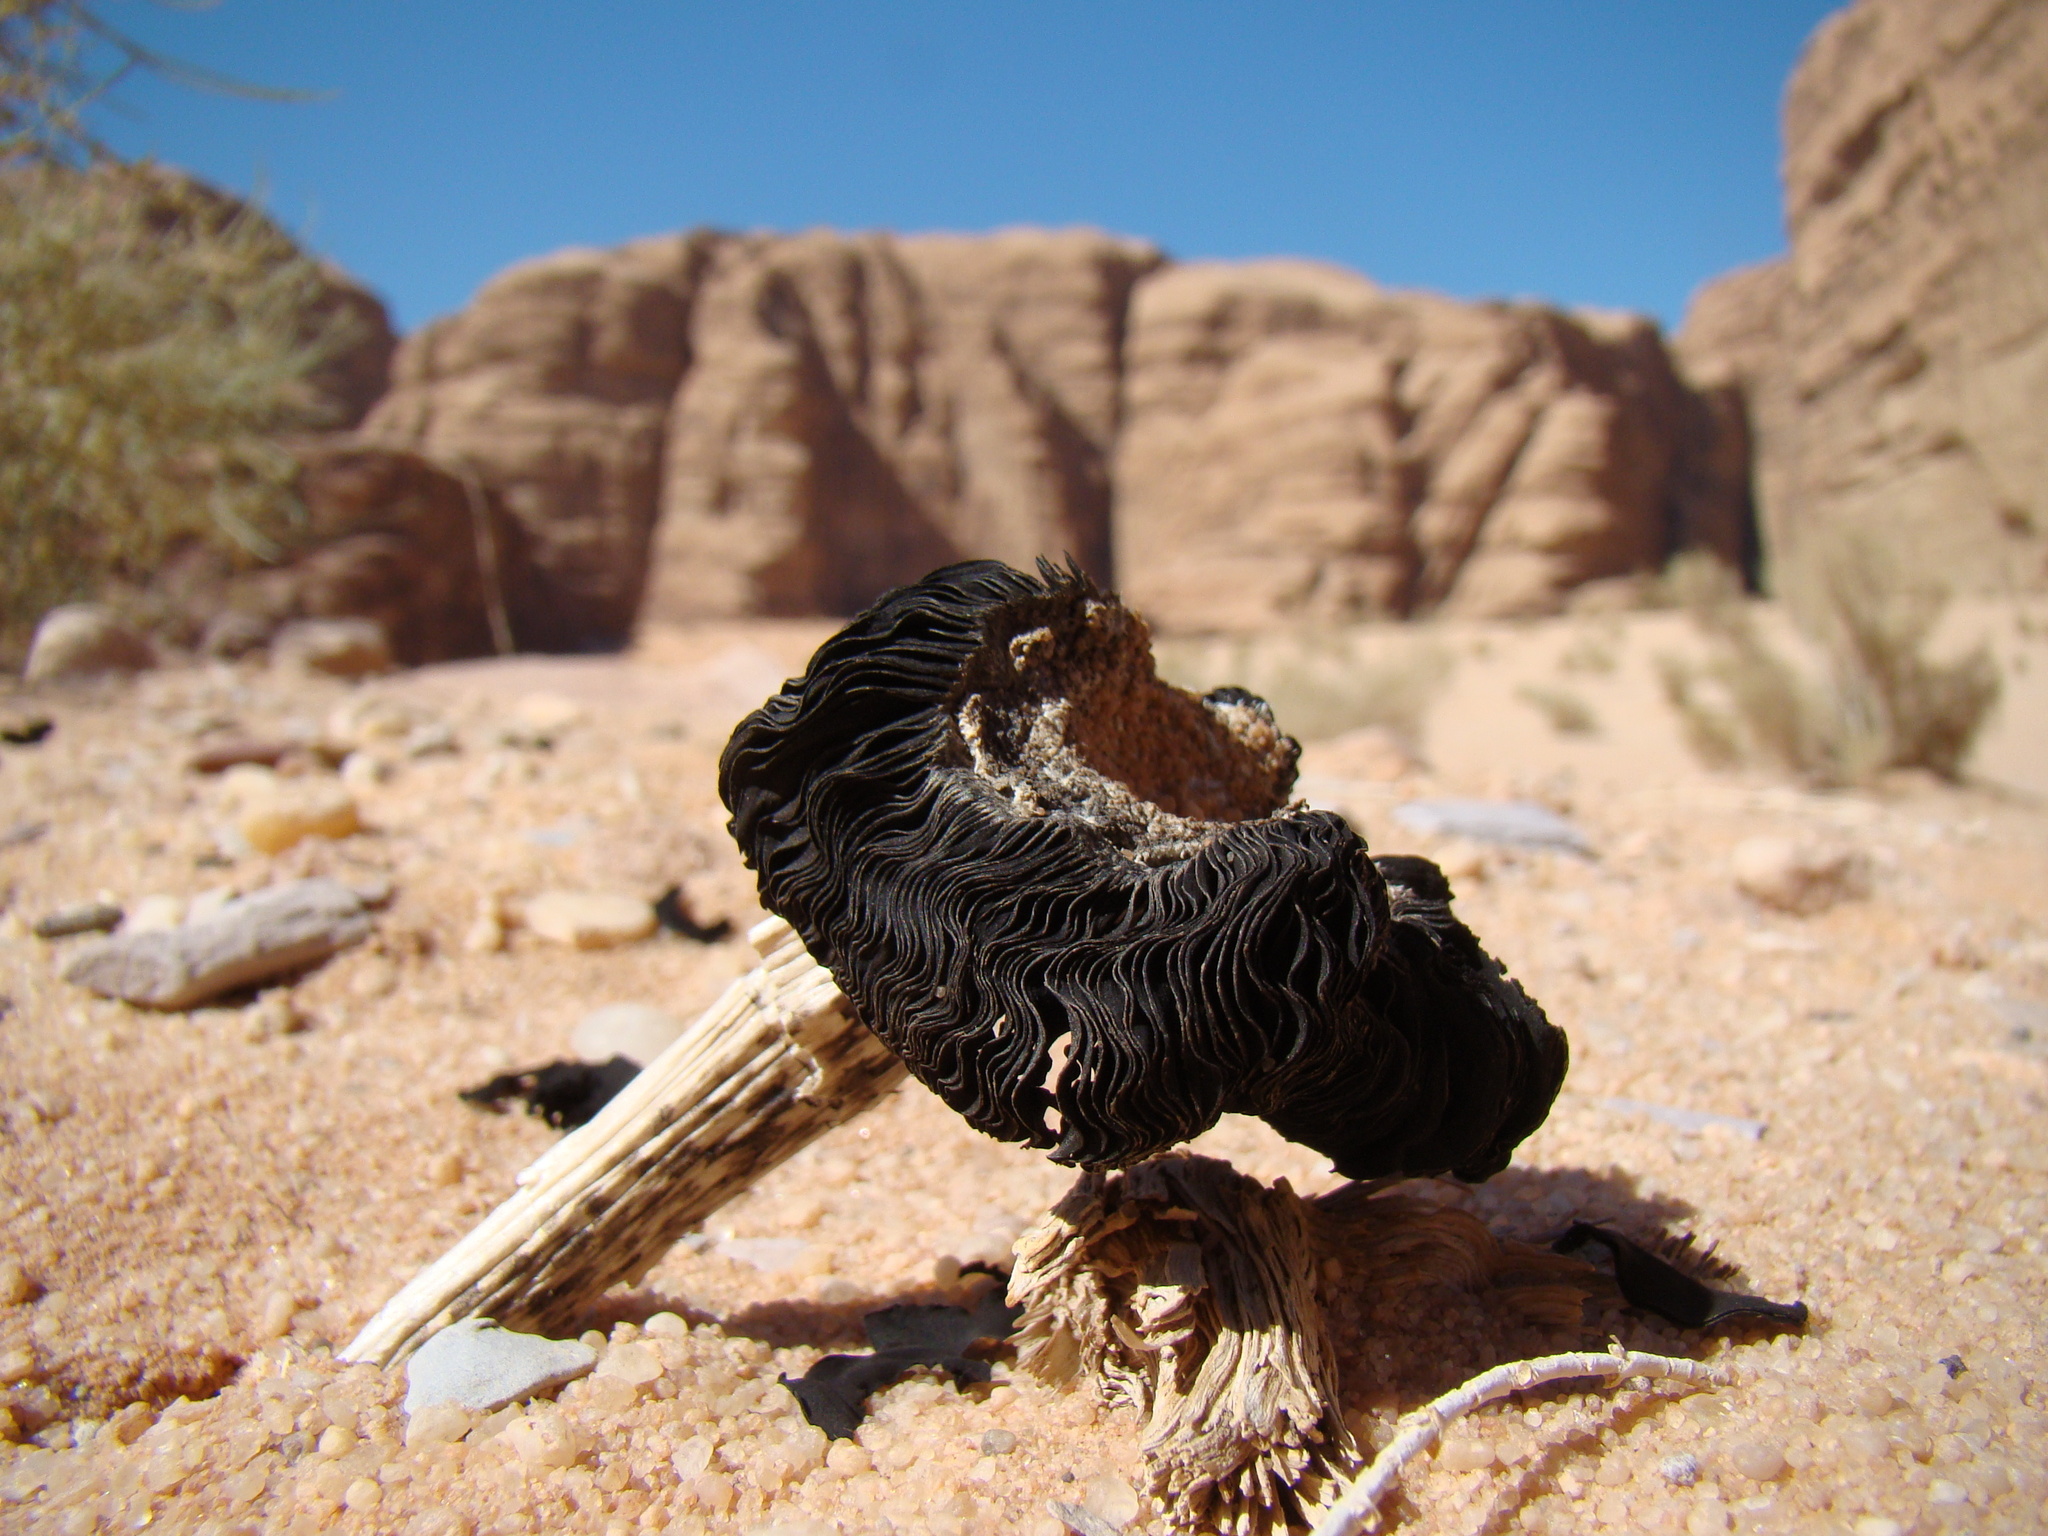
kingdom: Fungi
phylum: Basidiomycota
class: Agaricomycetes
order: Agaricales
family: Agaricaceae
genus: Montagnea
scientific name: Montagnea arenaria
